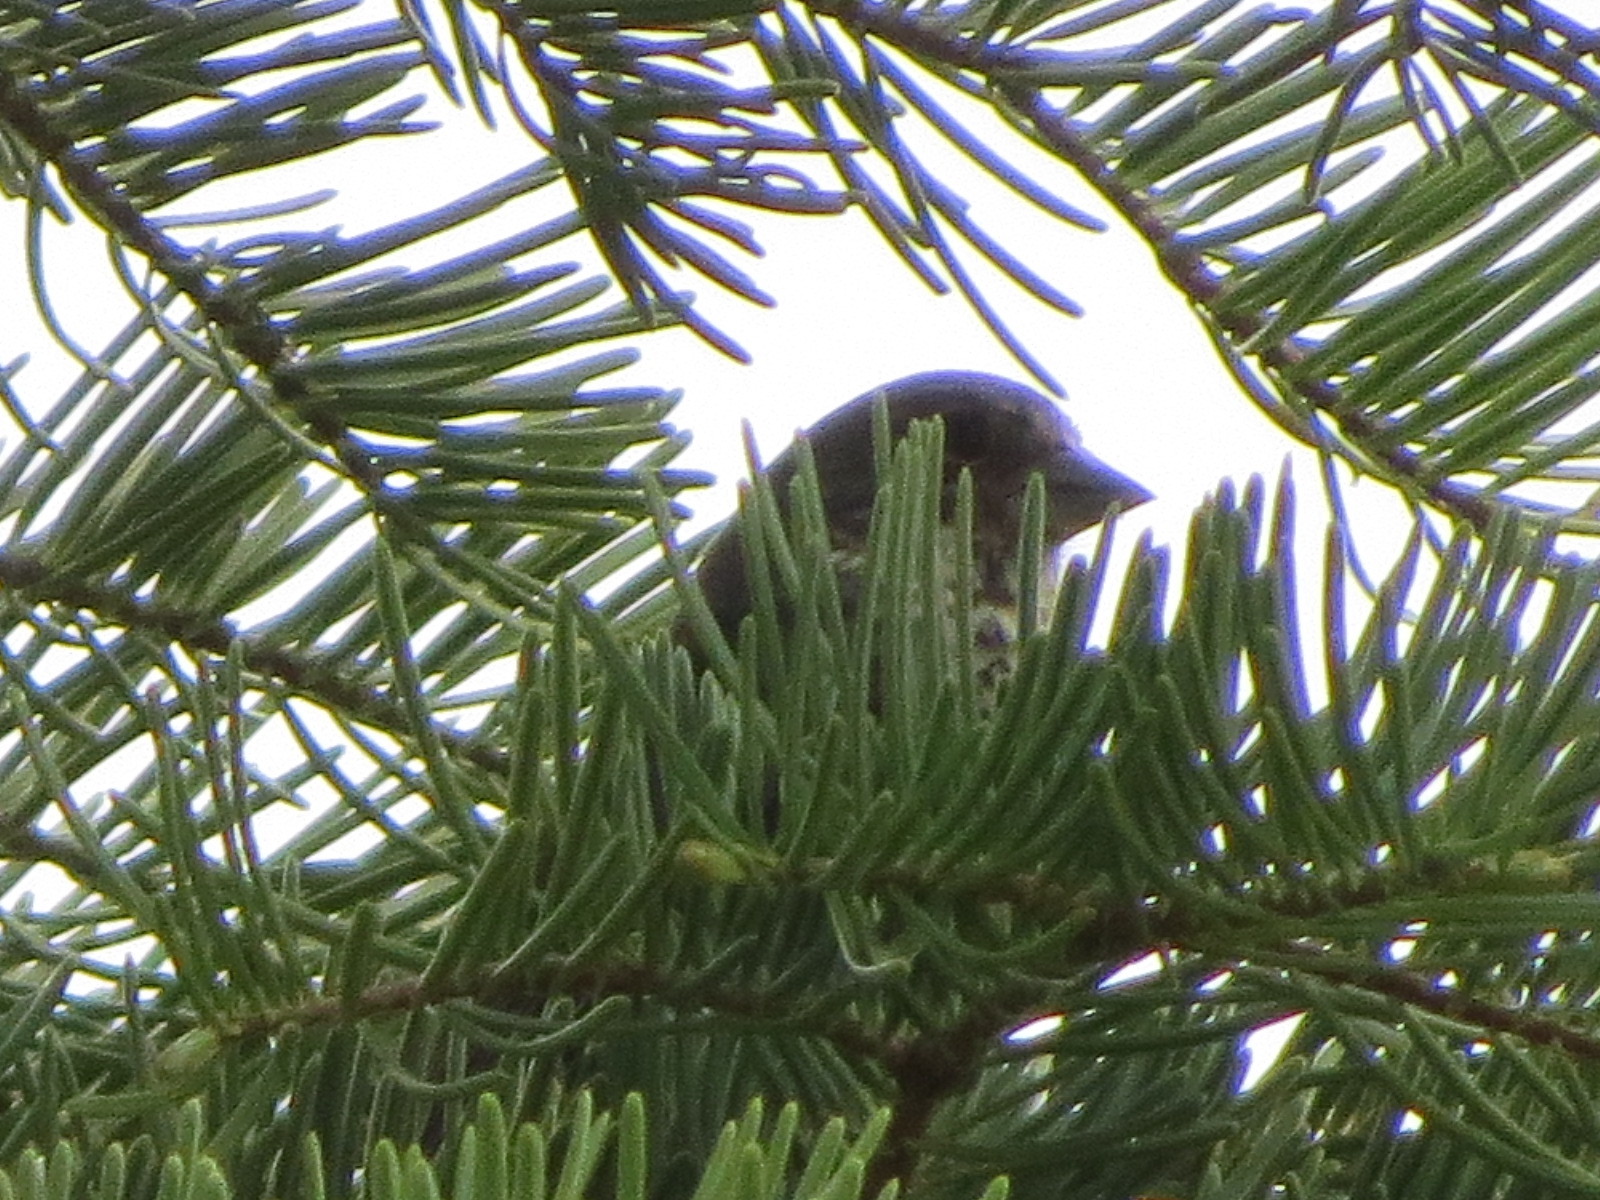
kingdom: Animalia
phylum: Chordata
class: Aves
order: Passeriformes
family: Passerellidae
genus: Passerella
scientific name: Passerella megarhyncha
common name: Thick-billed fox sparrow
